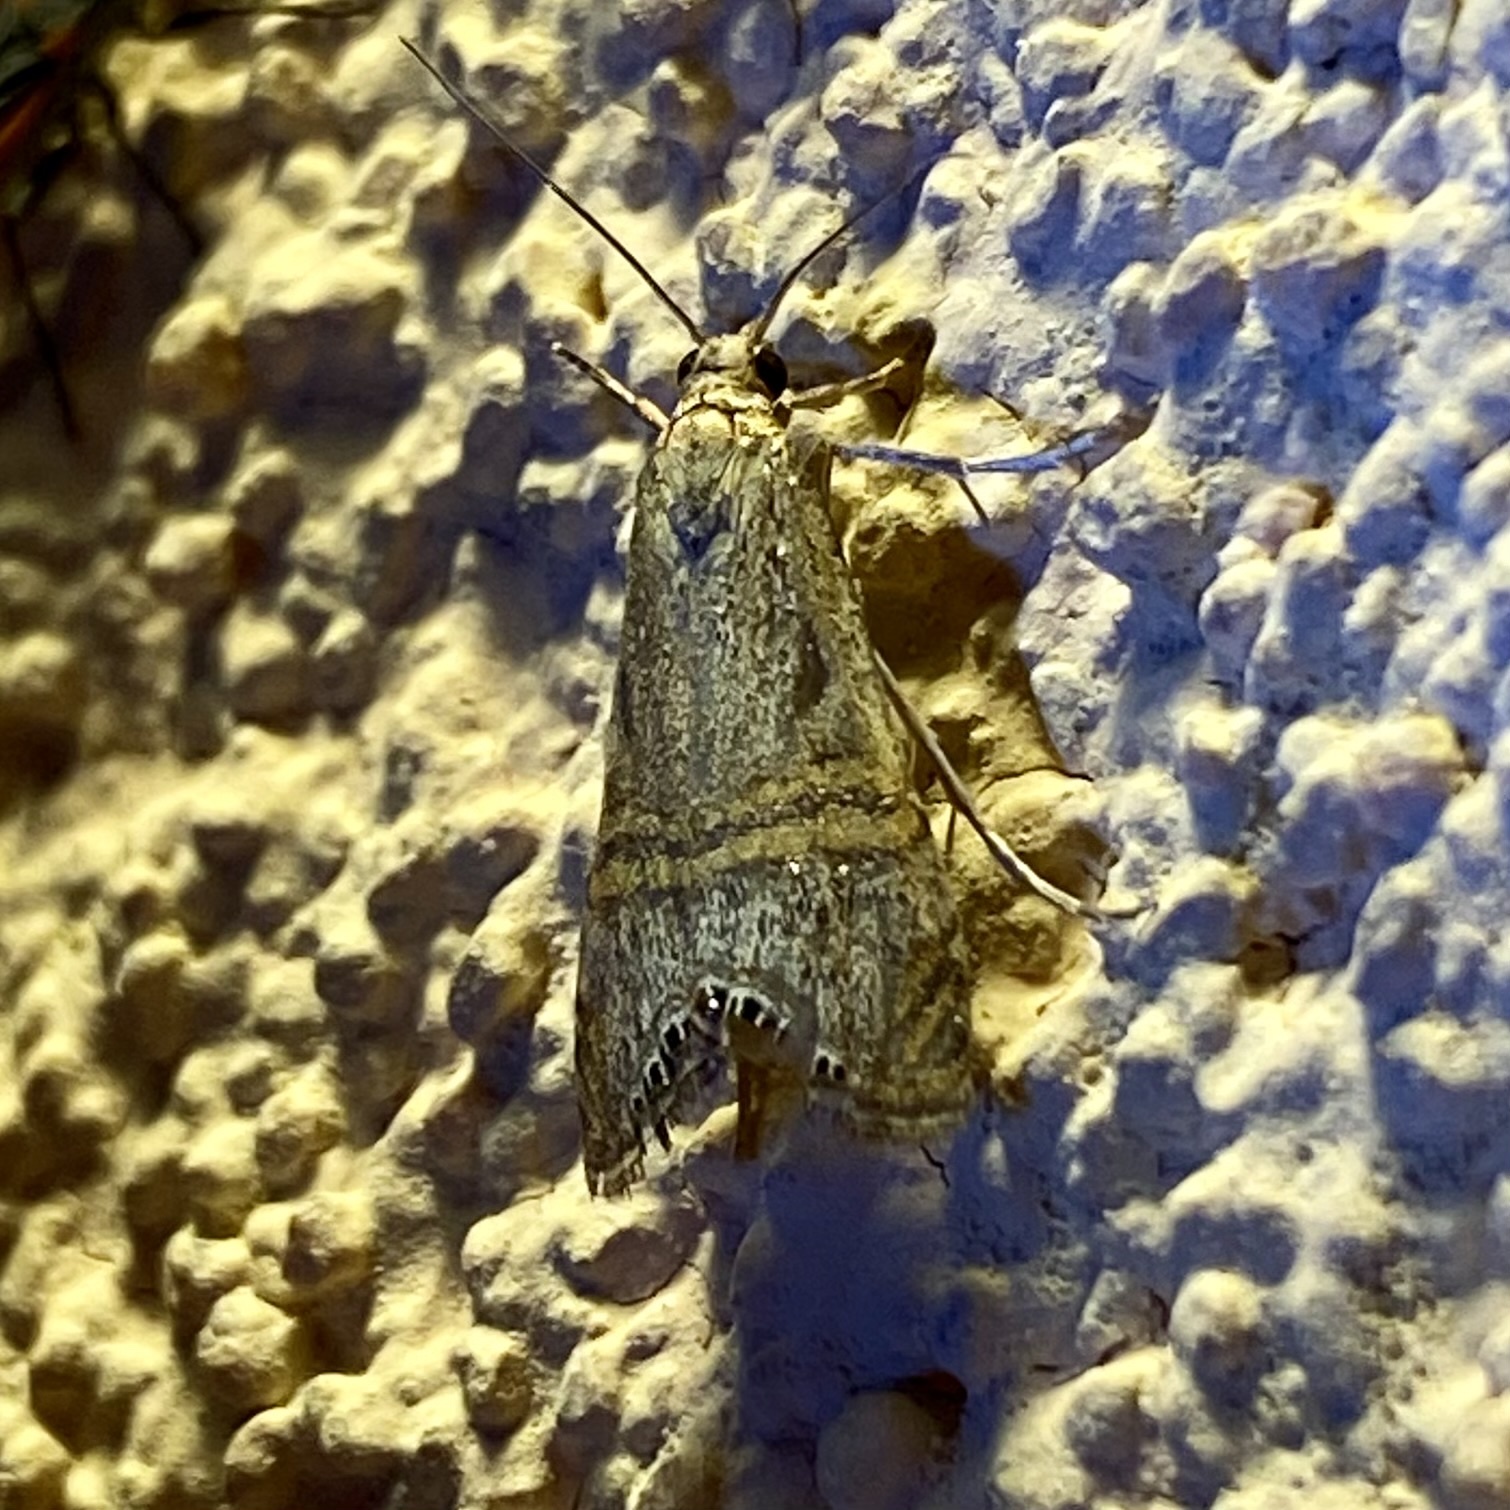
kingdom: Animalia
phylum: Arthropoda
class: Insecta
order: Lepidoptera
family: Crambidae
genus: Euchromius
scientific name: Euchromius ocellea
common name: Necklace veneer moth
